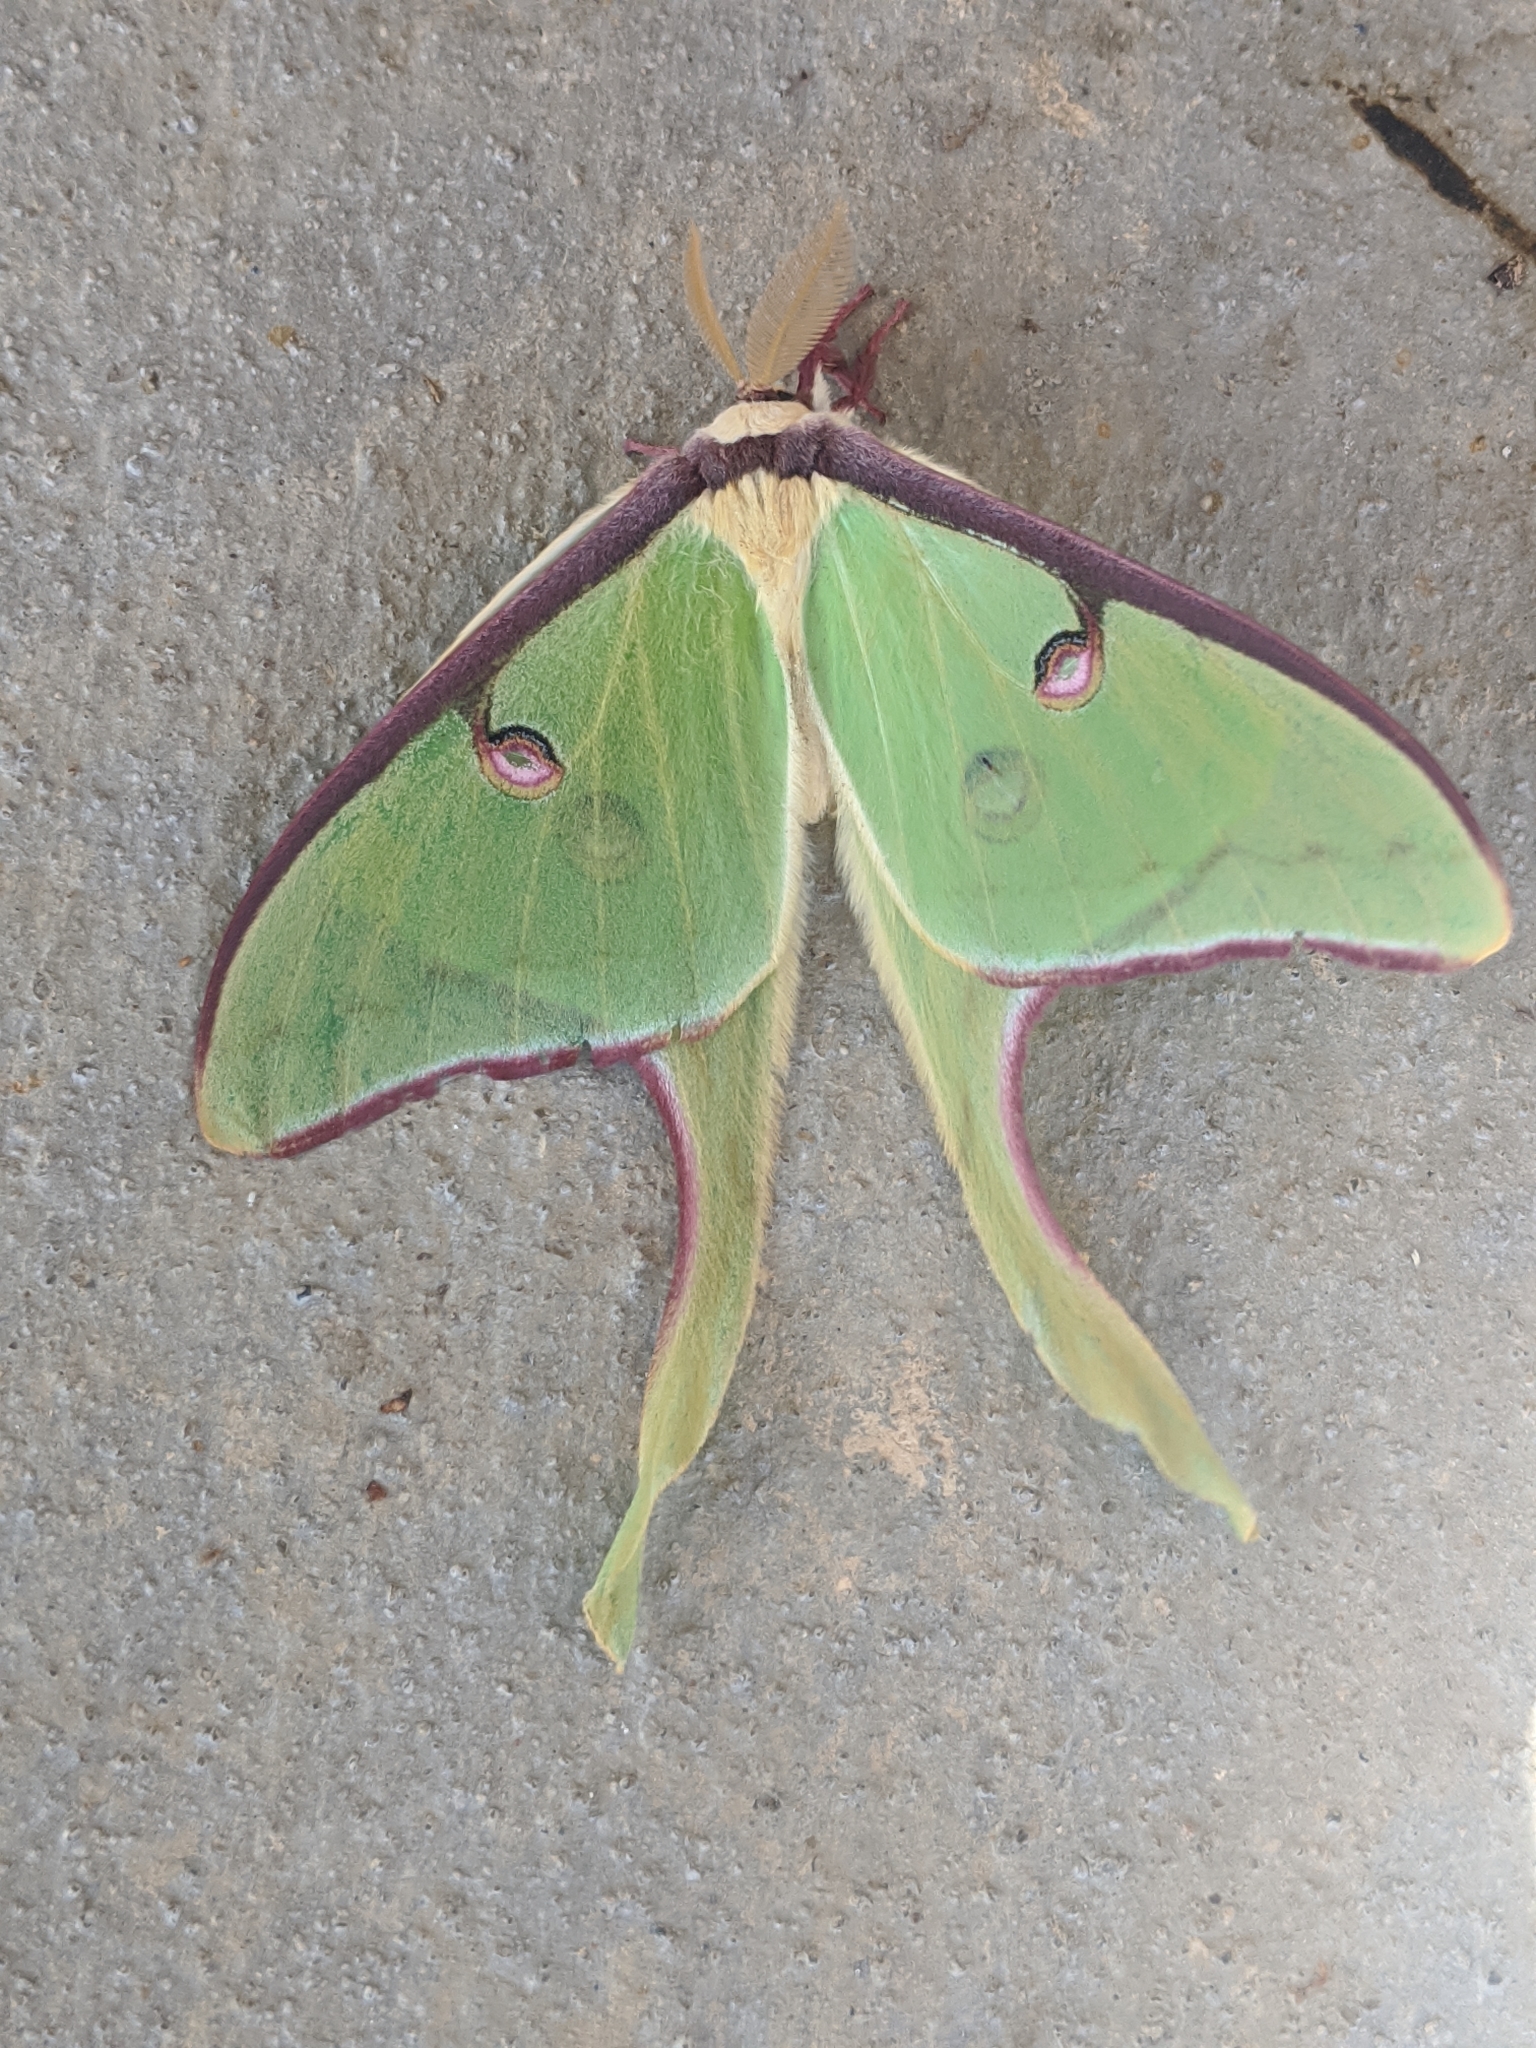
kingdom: Animalia
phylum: Arthropoda
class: Insecta
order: Lepidoptera
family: Saturniidae
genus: Actias
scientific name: Actias luna
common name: Luna moth
